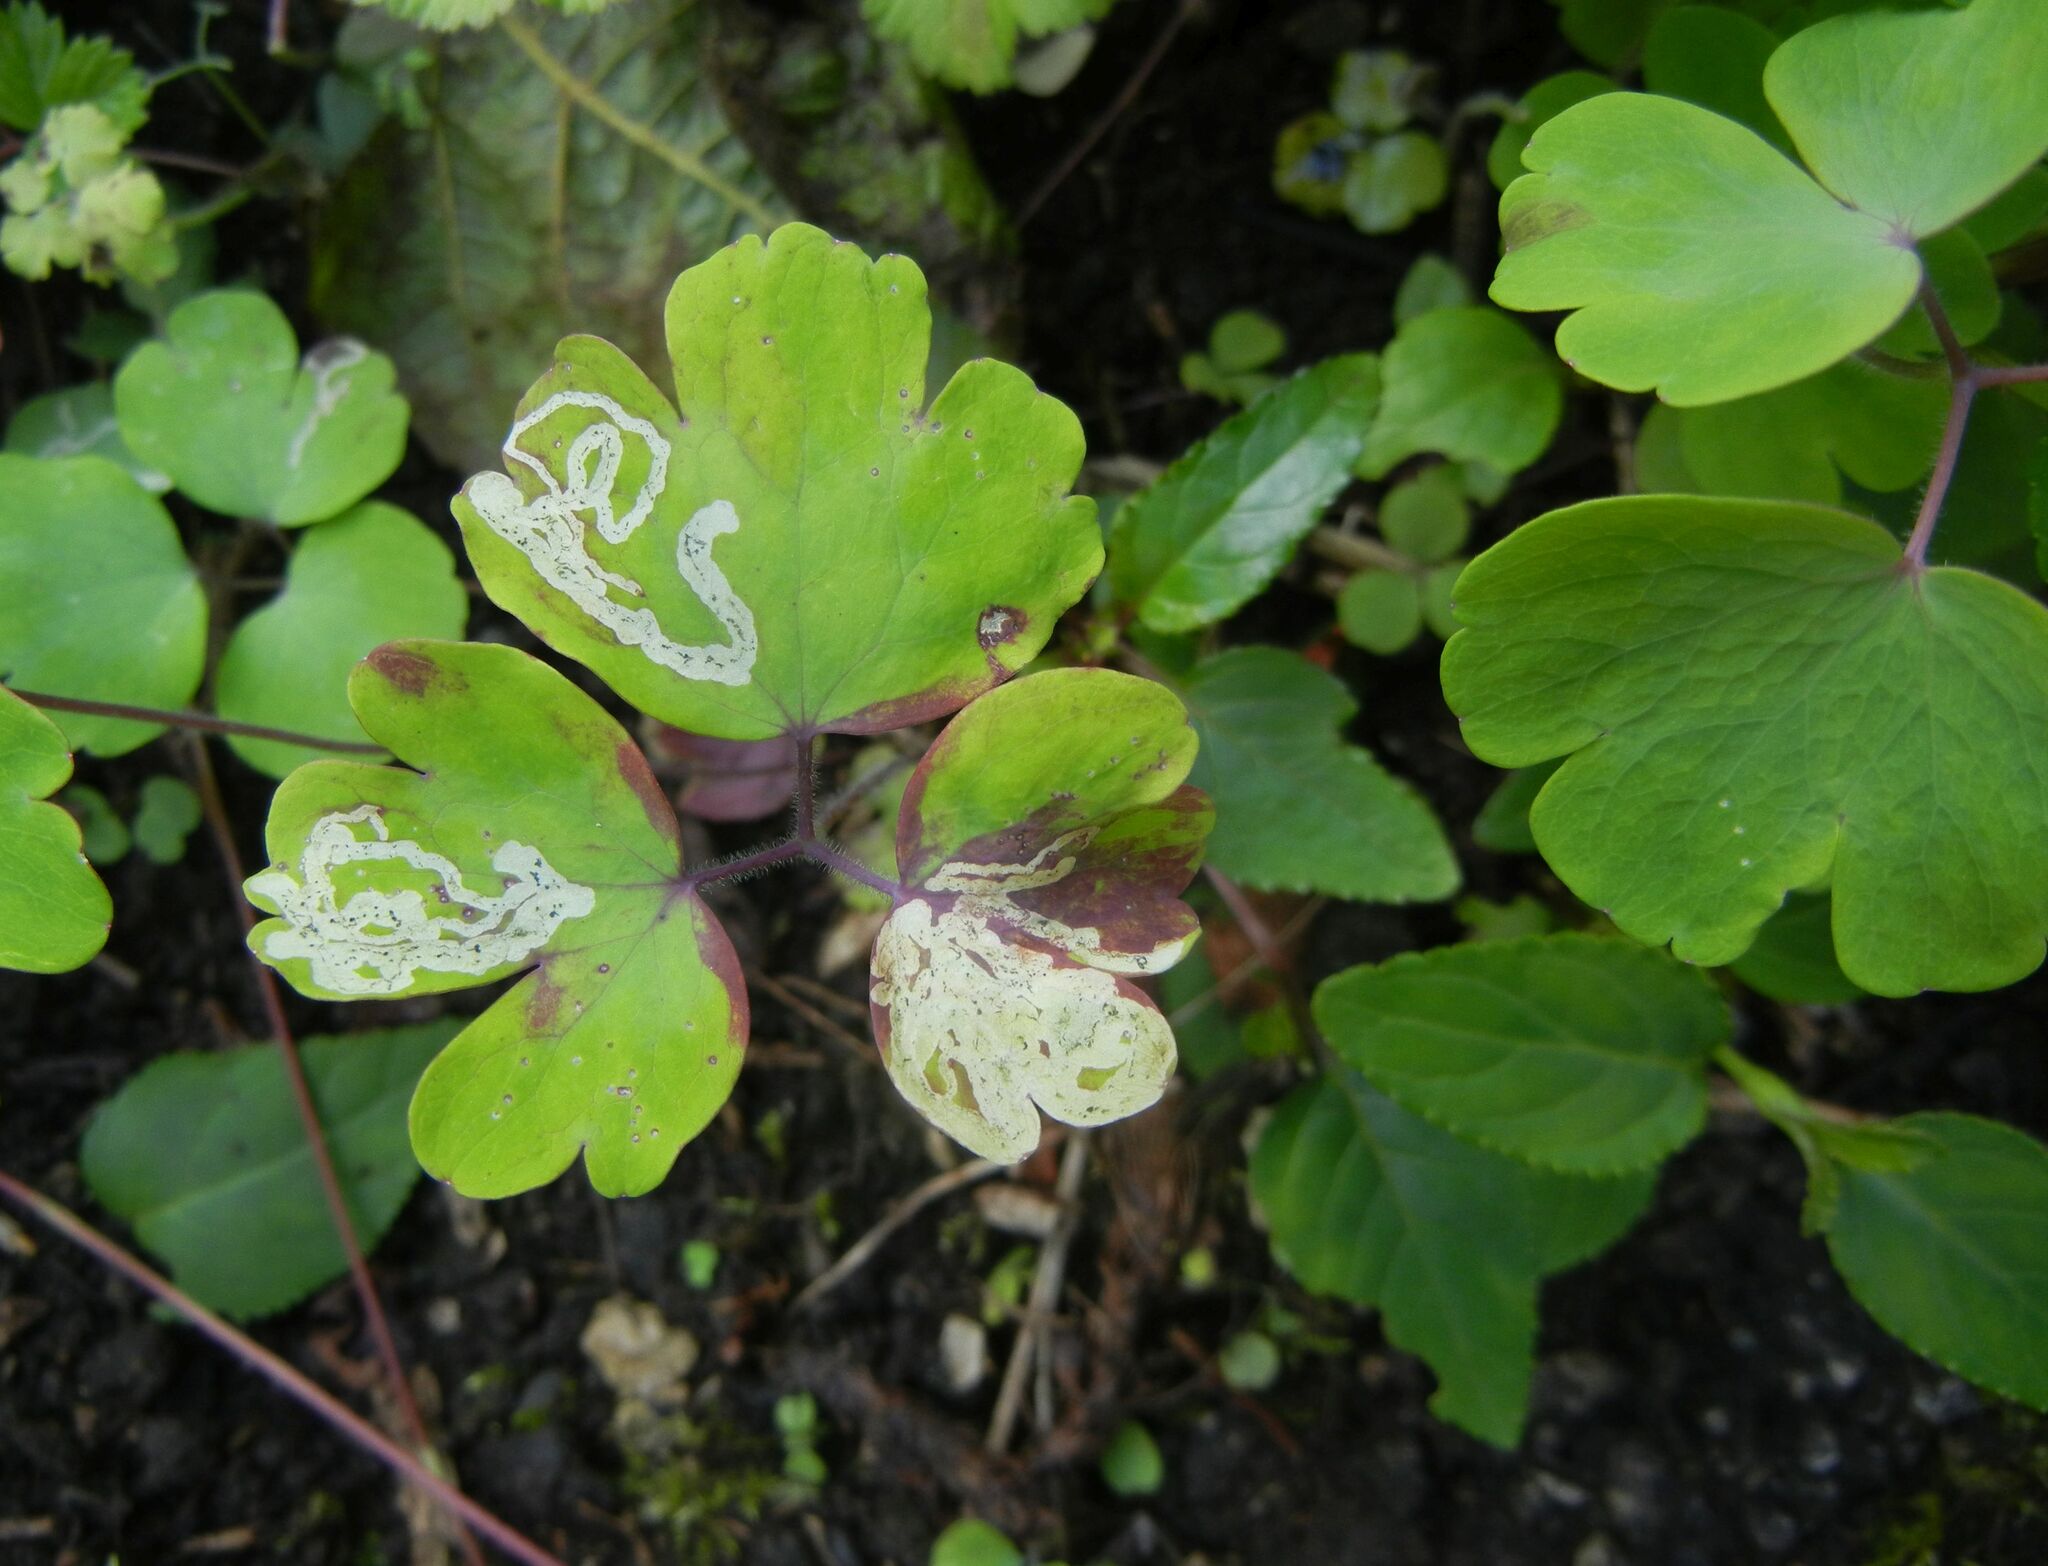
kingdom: Plantae
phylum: Tracheophyta
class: Magnoliopsida
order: Ranunculales
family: Ranunculaceae
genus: Aquilegia
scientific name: Aquilegia vulgaris
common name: Columbine
